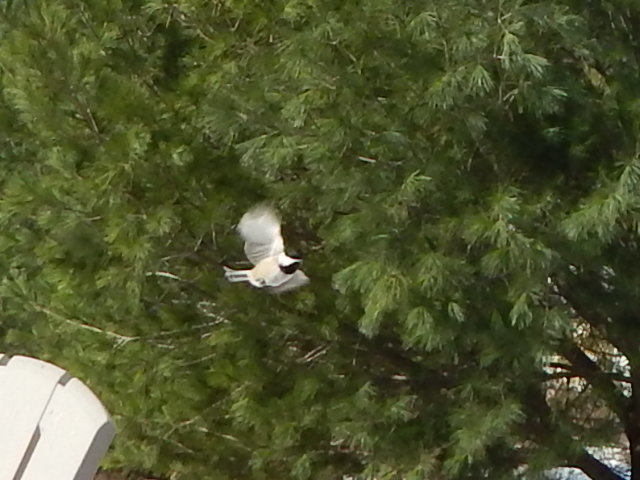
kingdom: Animalia
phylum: Chordata
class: Aves
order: Passeriformes
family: Paridae
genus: Poecile
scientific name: Poecile atricapillus
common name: Black-capped chickadee
